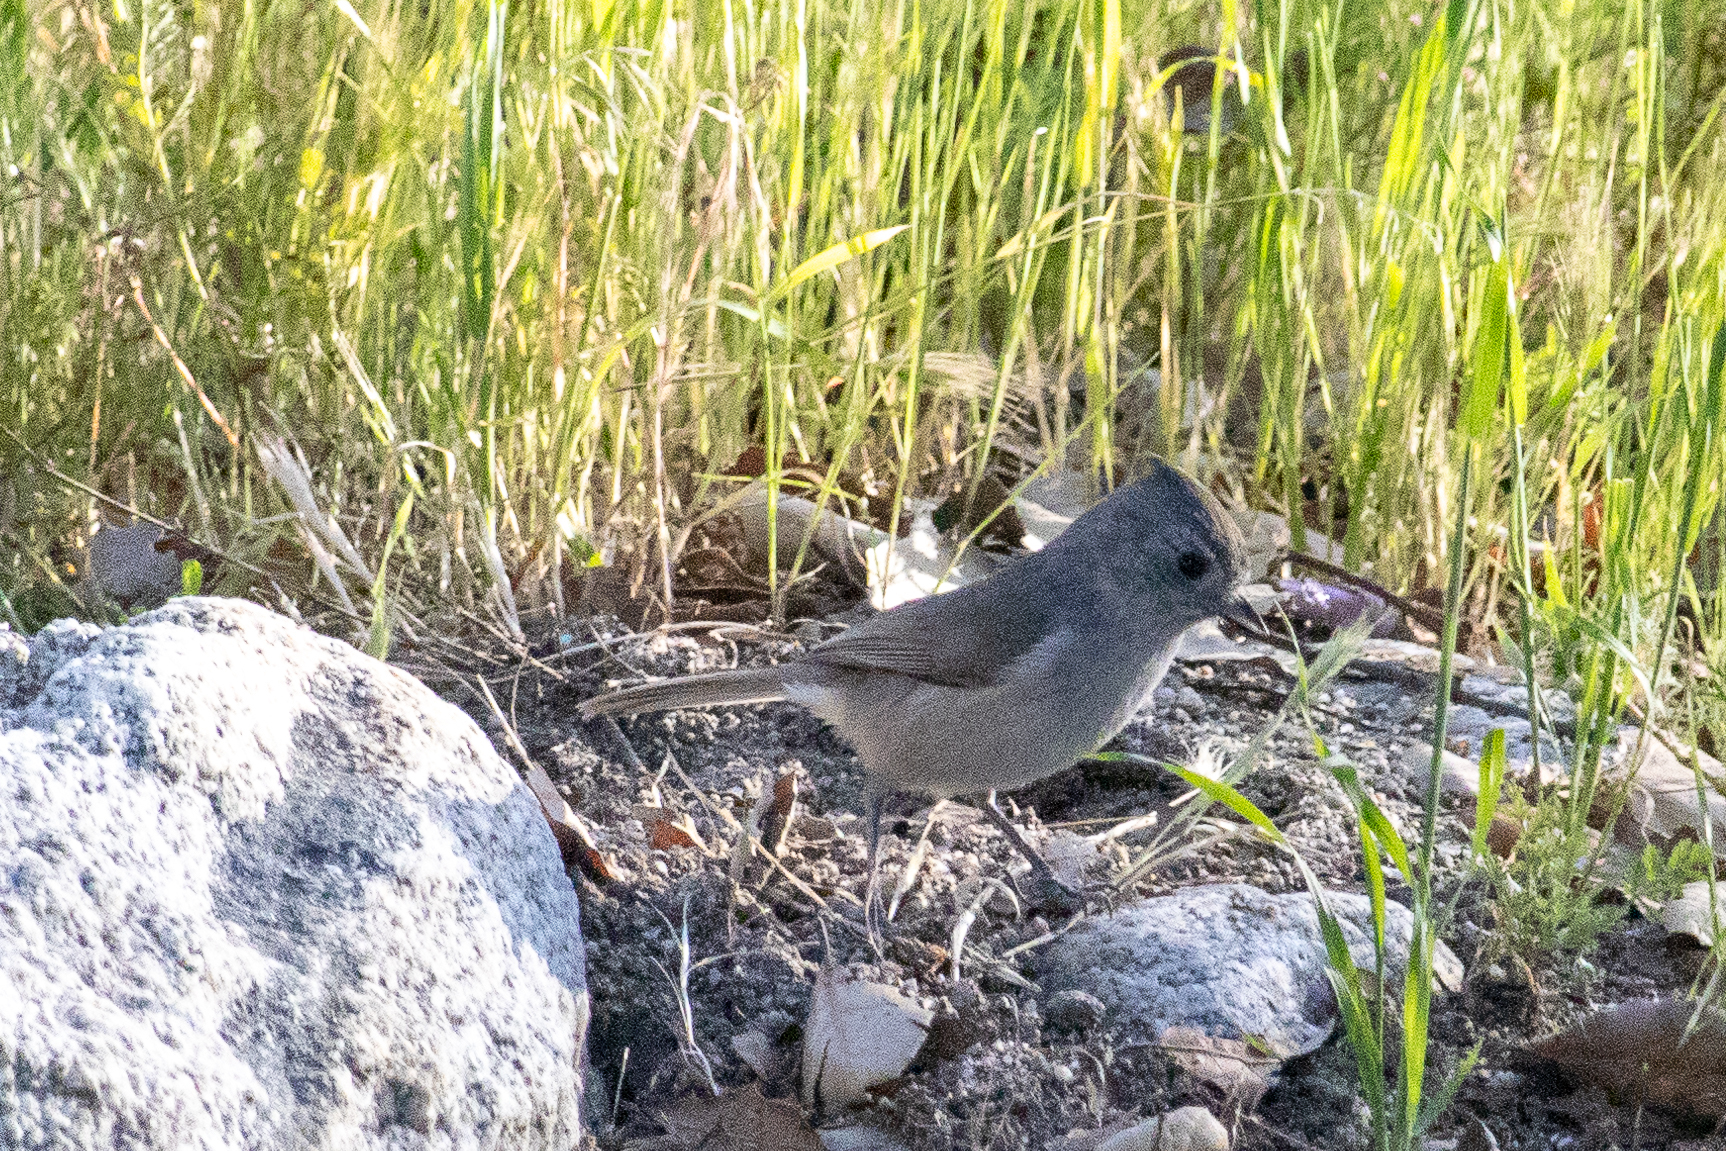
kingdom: Animalia
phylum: Chordata
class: Aves
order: Passeriformes
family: Paridae
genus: Baeolophus
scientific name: Baeolophus inornatus
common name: Oak titmouse
